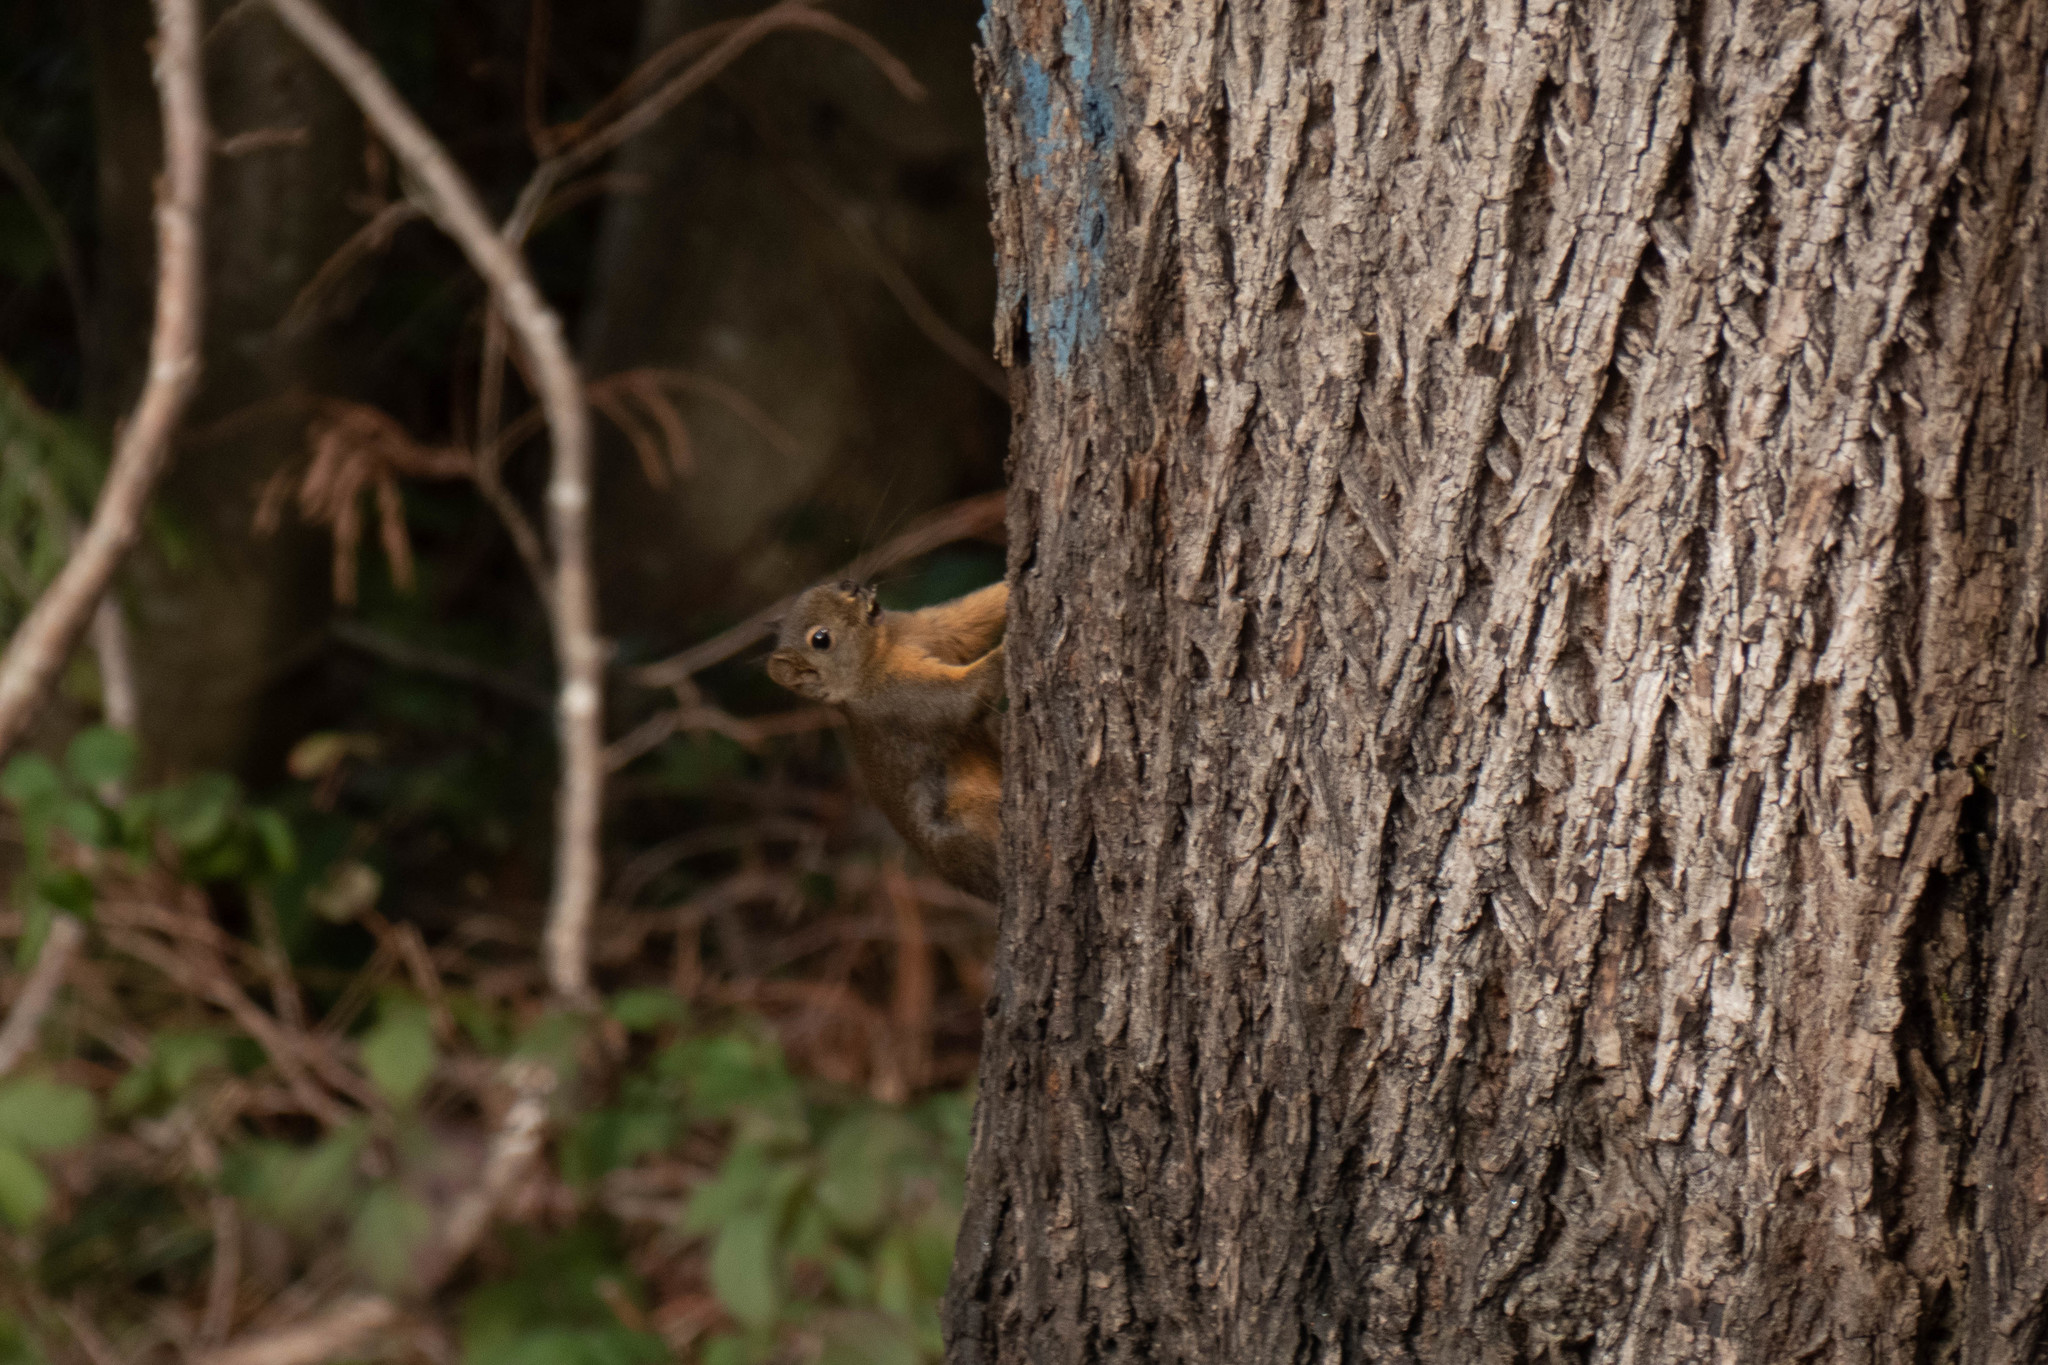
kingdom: Animalia
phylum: Chordata
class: Mammalia
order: Rodentia
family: Sciuridae
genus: Tamiasciurus
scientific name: Tamiasciurus douglasii
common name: Douglas's squirrel
